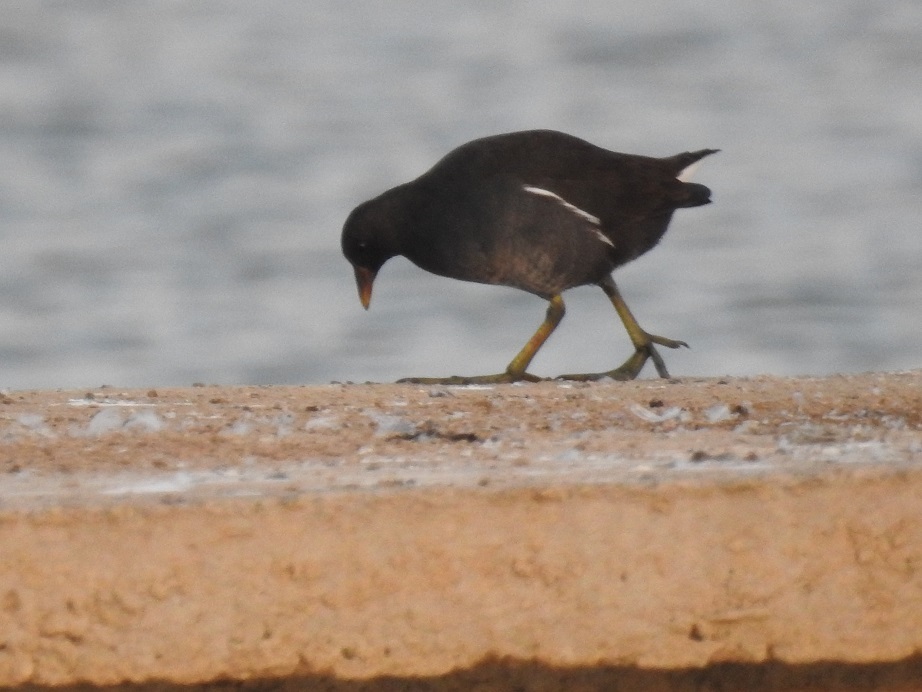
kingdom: Animalia
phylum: Chordata
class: Aves
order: Gruiformes
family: Rallidae
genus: Gallinula
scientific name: Gallinula chloropus
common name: Common moorhen
